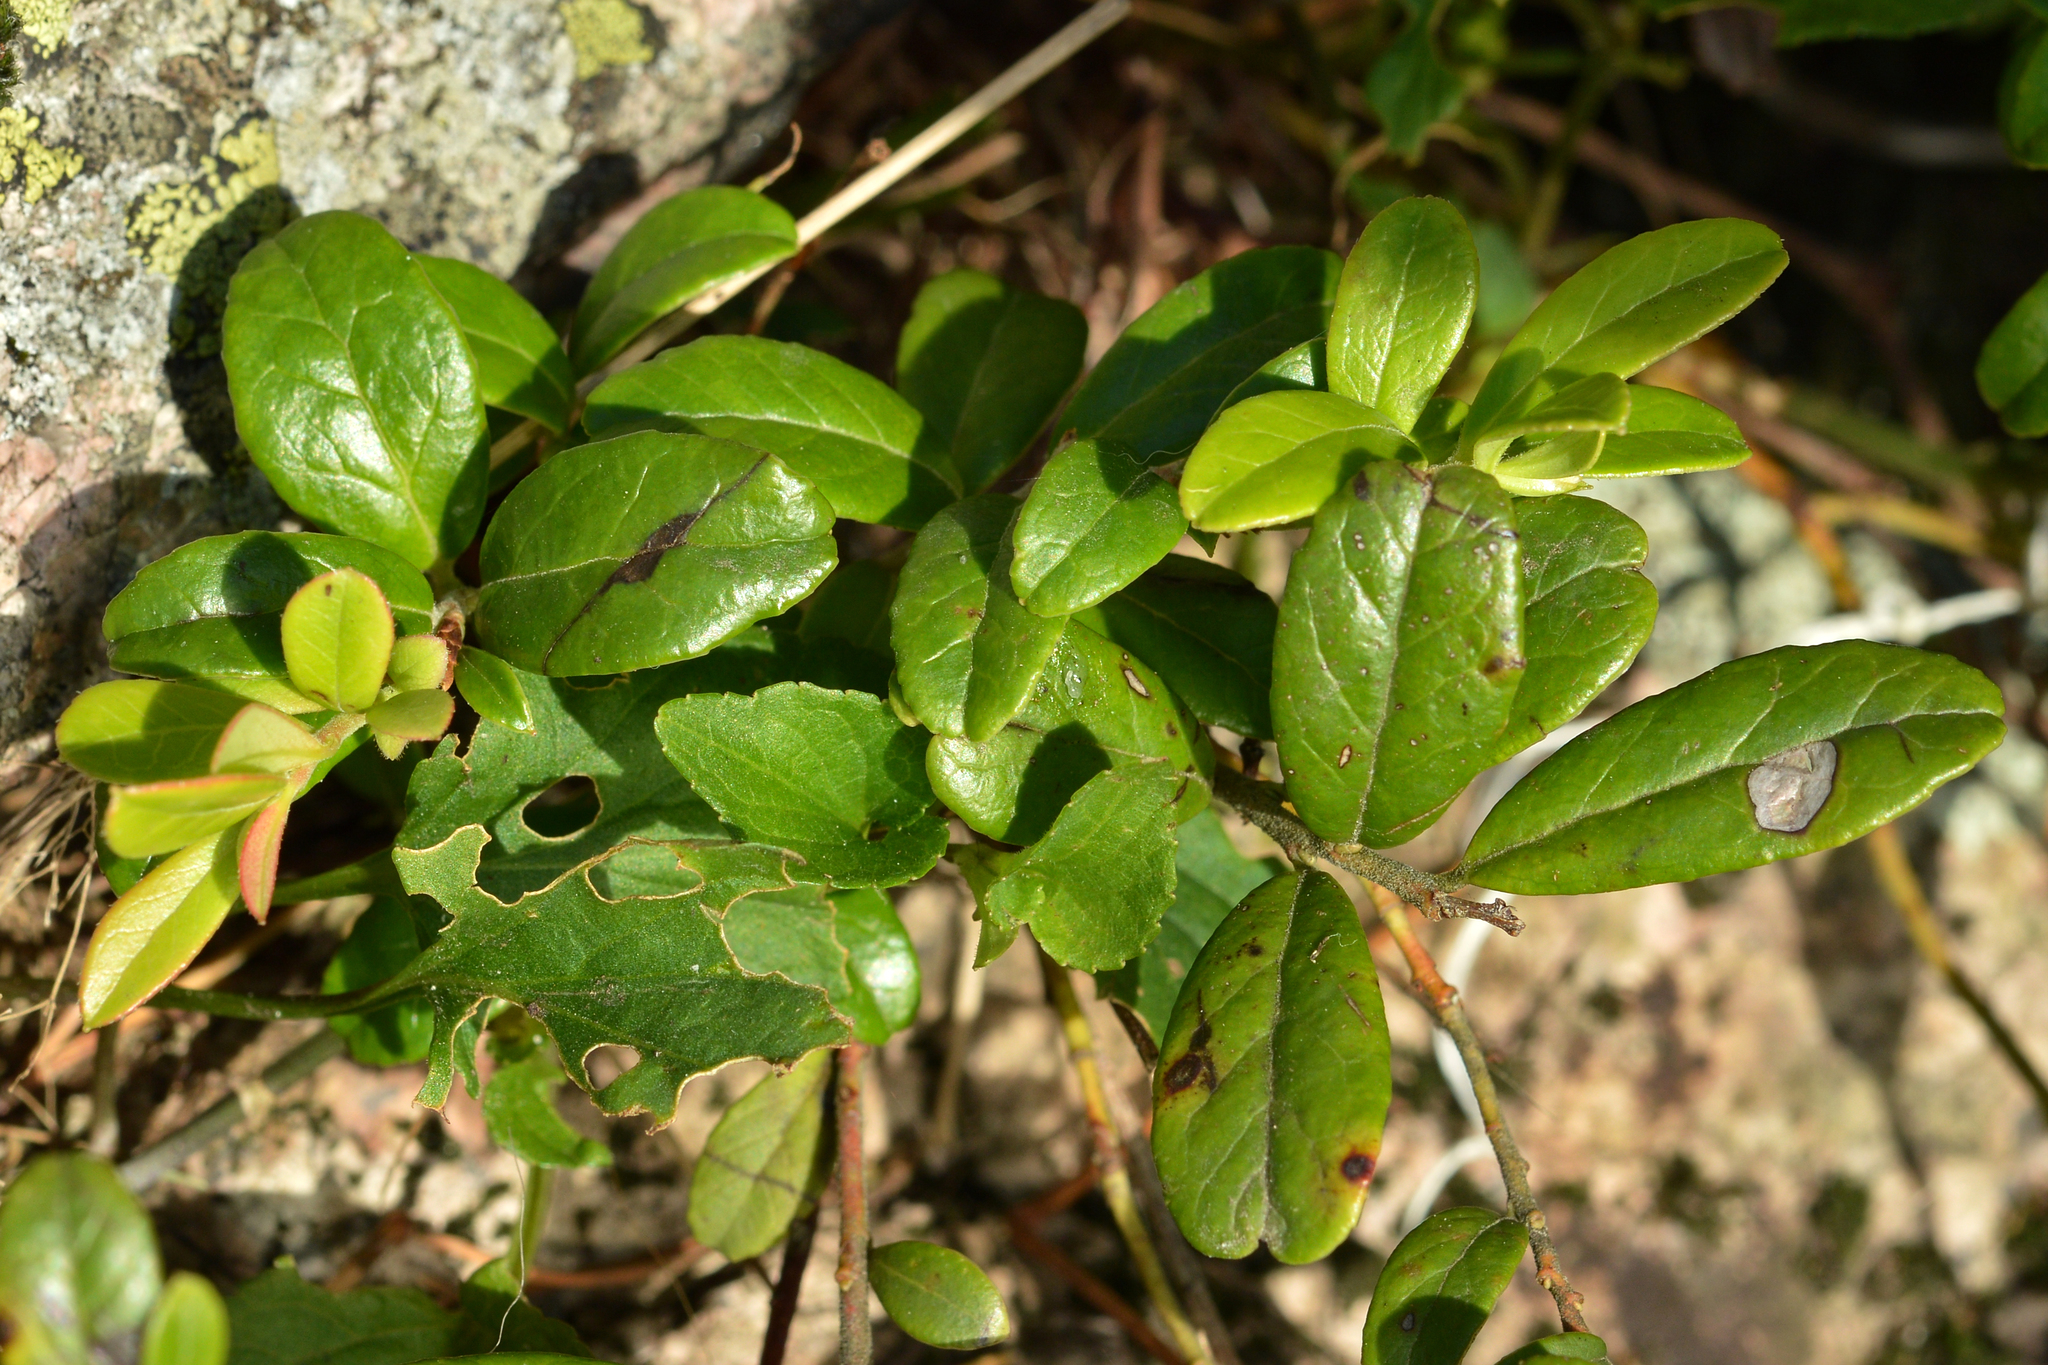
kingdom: Plantae
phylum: Tracheophyta
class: Magnoliopsida
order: Ericales
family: Ericaceae
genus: Vaccinium
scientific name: Vaccinium vitis-idaea
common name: Cowberry
